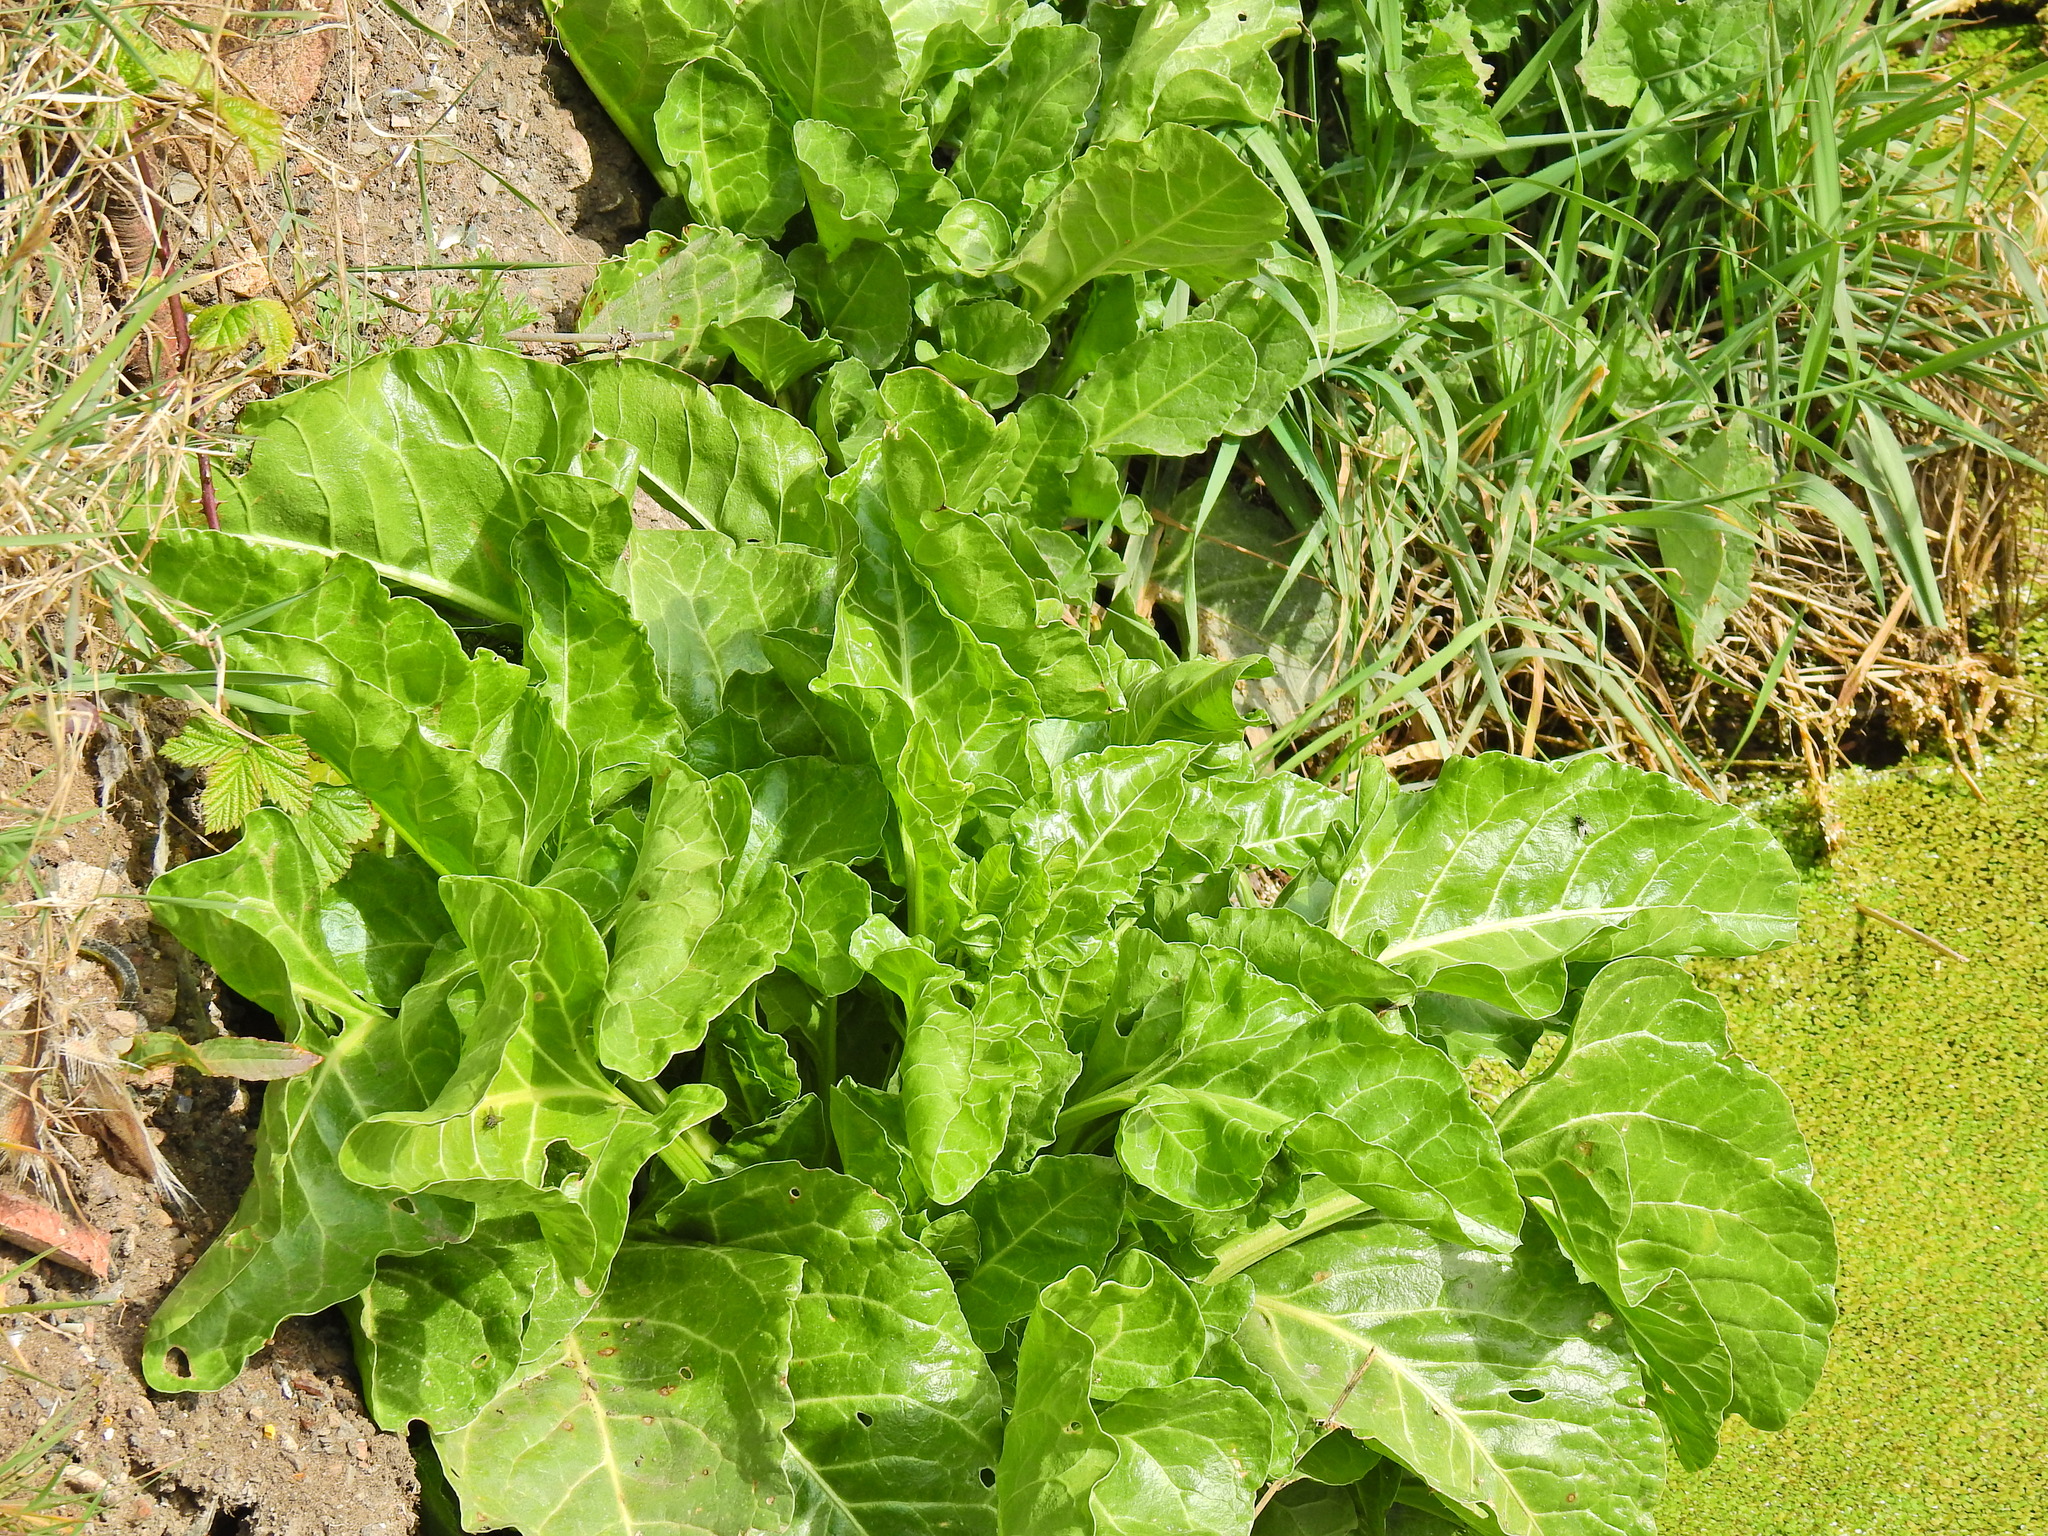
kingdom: Plantae
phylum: Tracheophyta
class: Magnoliopsida
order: Caryophyllales
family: Amaranthaceae
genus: Beta
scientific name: Beta vulgaris
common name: Beet
